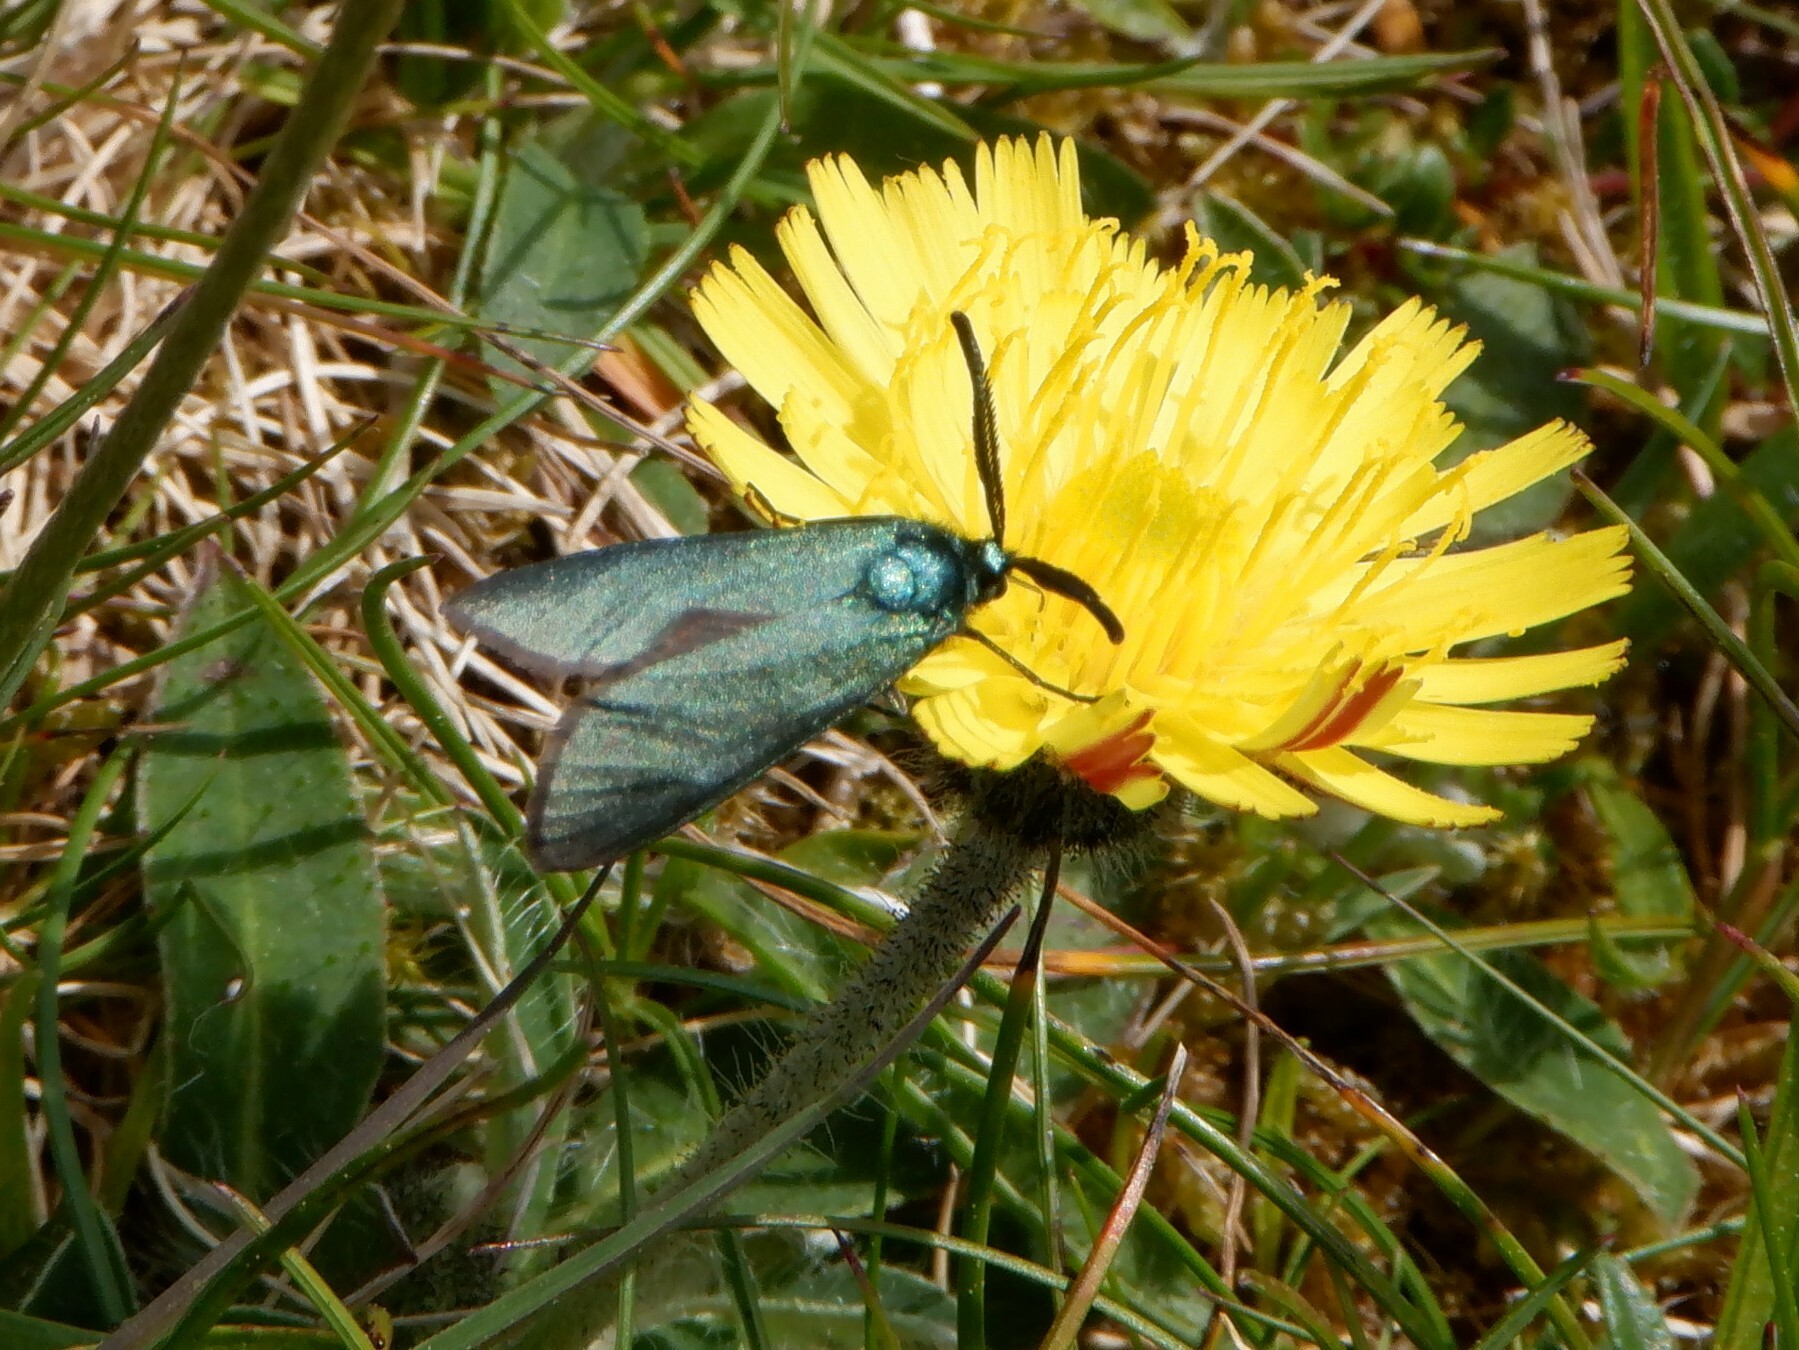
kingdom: Animalia
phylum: Arthropoda
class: Insecta
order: Lepidoptera
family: Zygaenidae
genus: Adscita
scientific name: Adscita statices
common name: Forester
